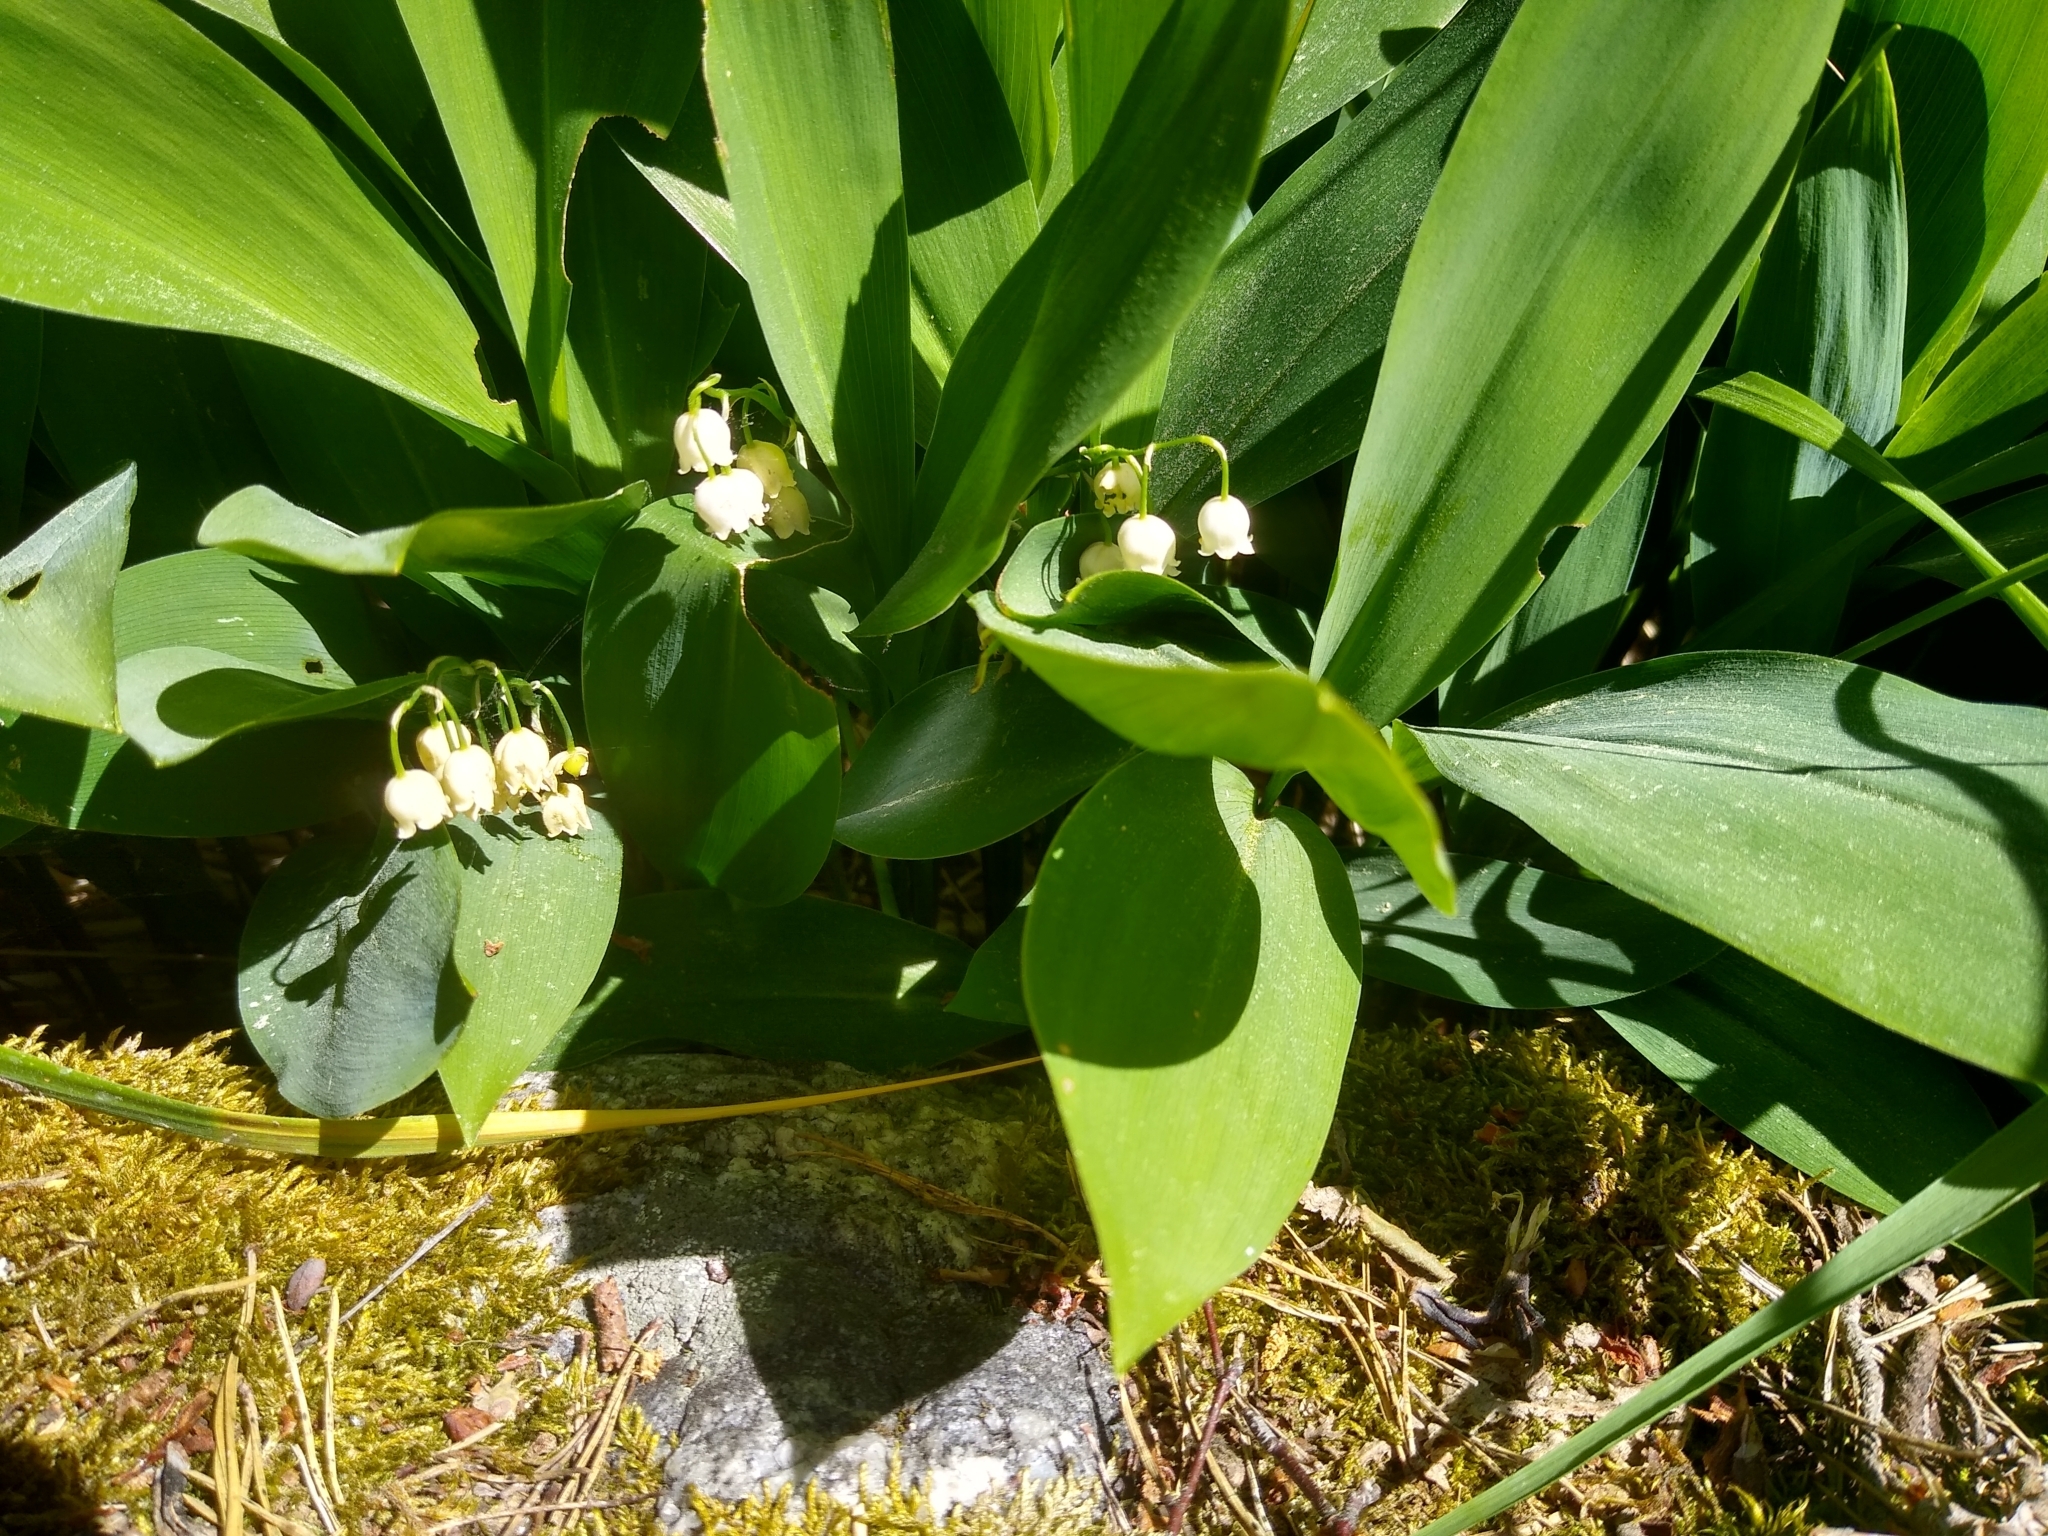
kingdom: Plantae
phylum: Tracheophyta
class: Liliopsida
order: Asparagales
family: Asparagaceae
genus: Convallaria
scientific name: Convallaria majalis
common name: Lily-of-the-valley
